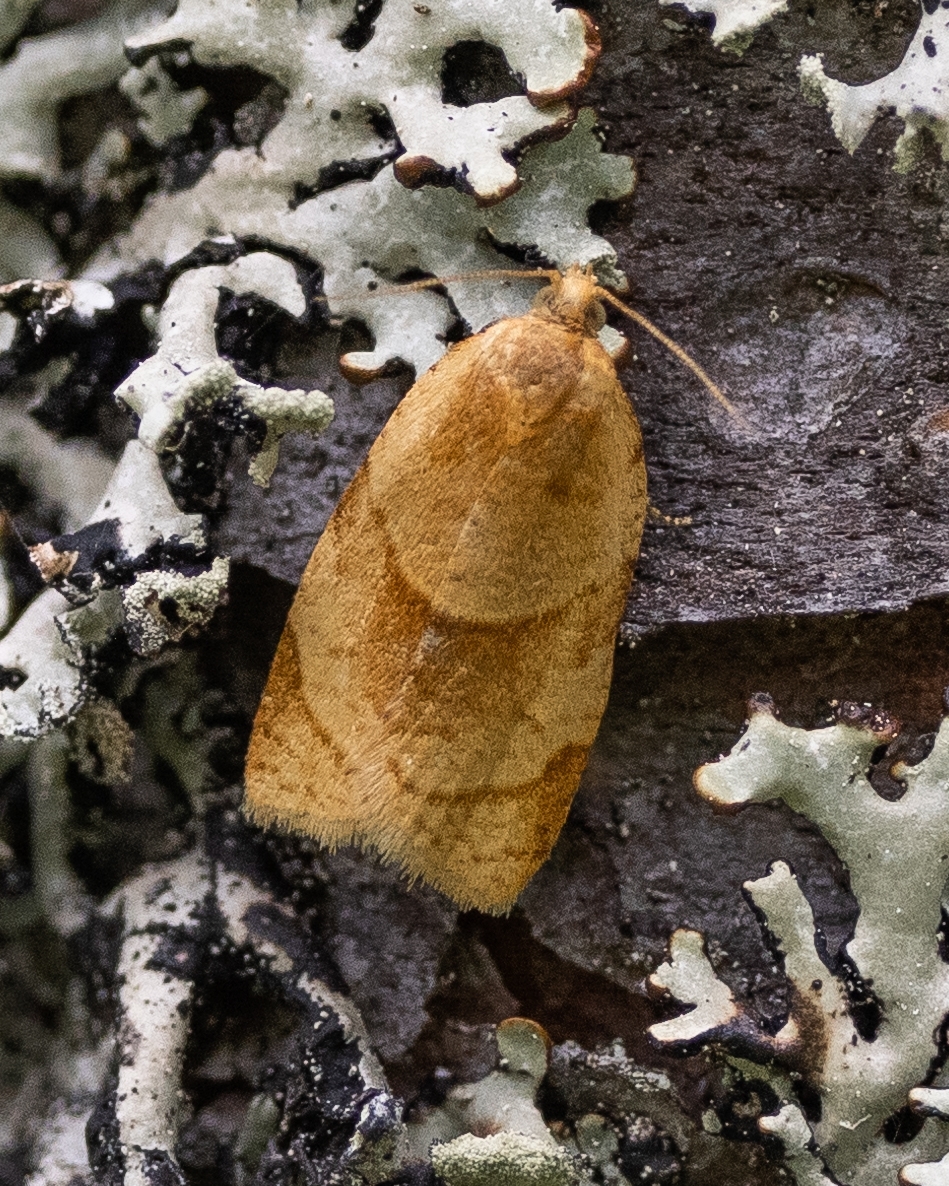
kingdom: Animalia
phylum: Arthropoda
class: Insecta
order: Lepidoptera
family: Tortricidae
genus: Clepsis
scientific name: Clepsis rurinana
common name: Pale twist
